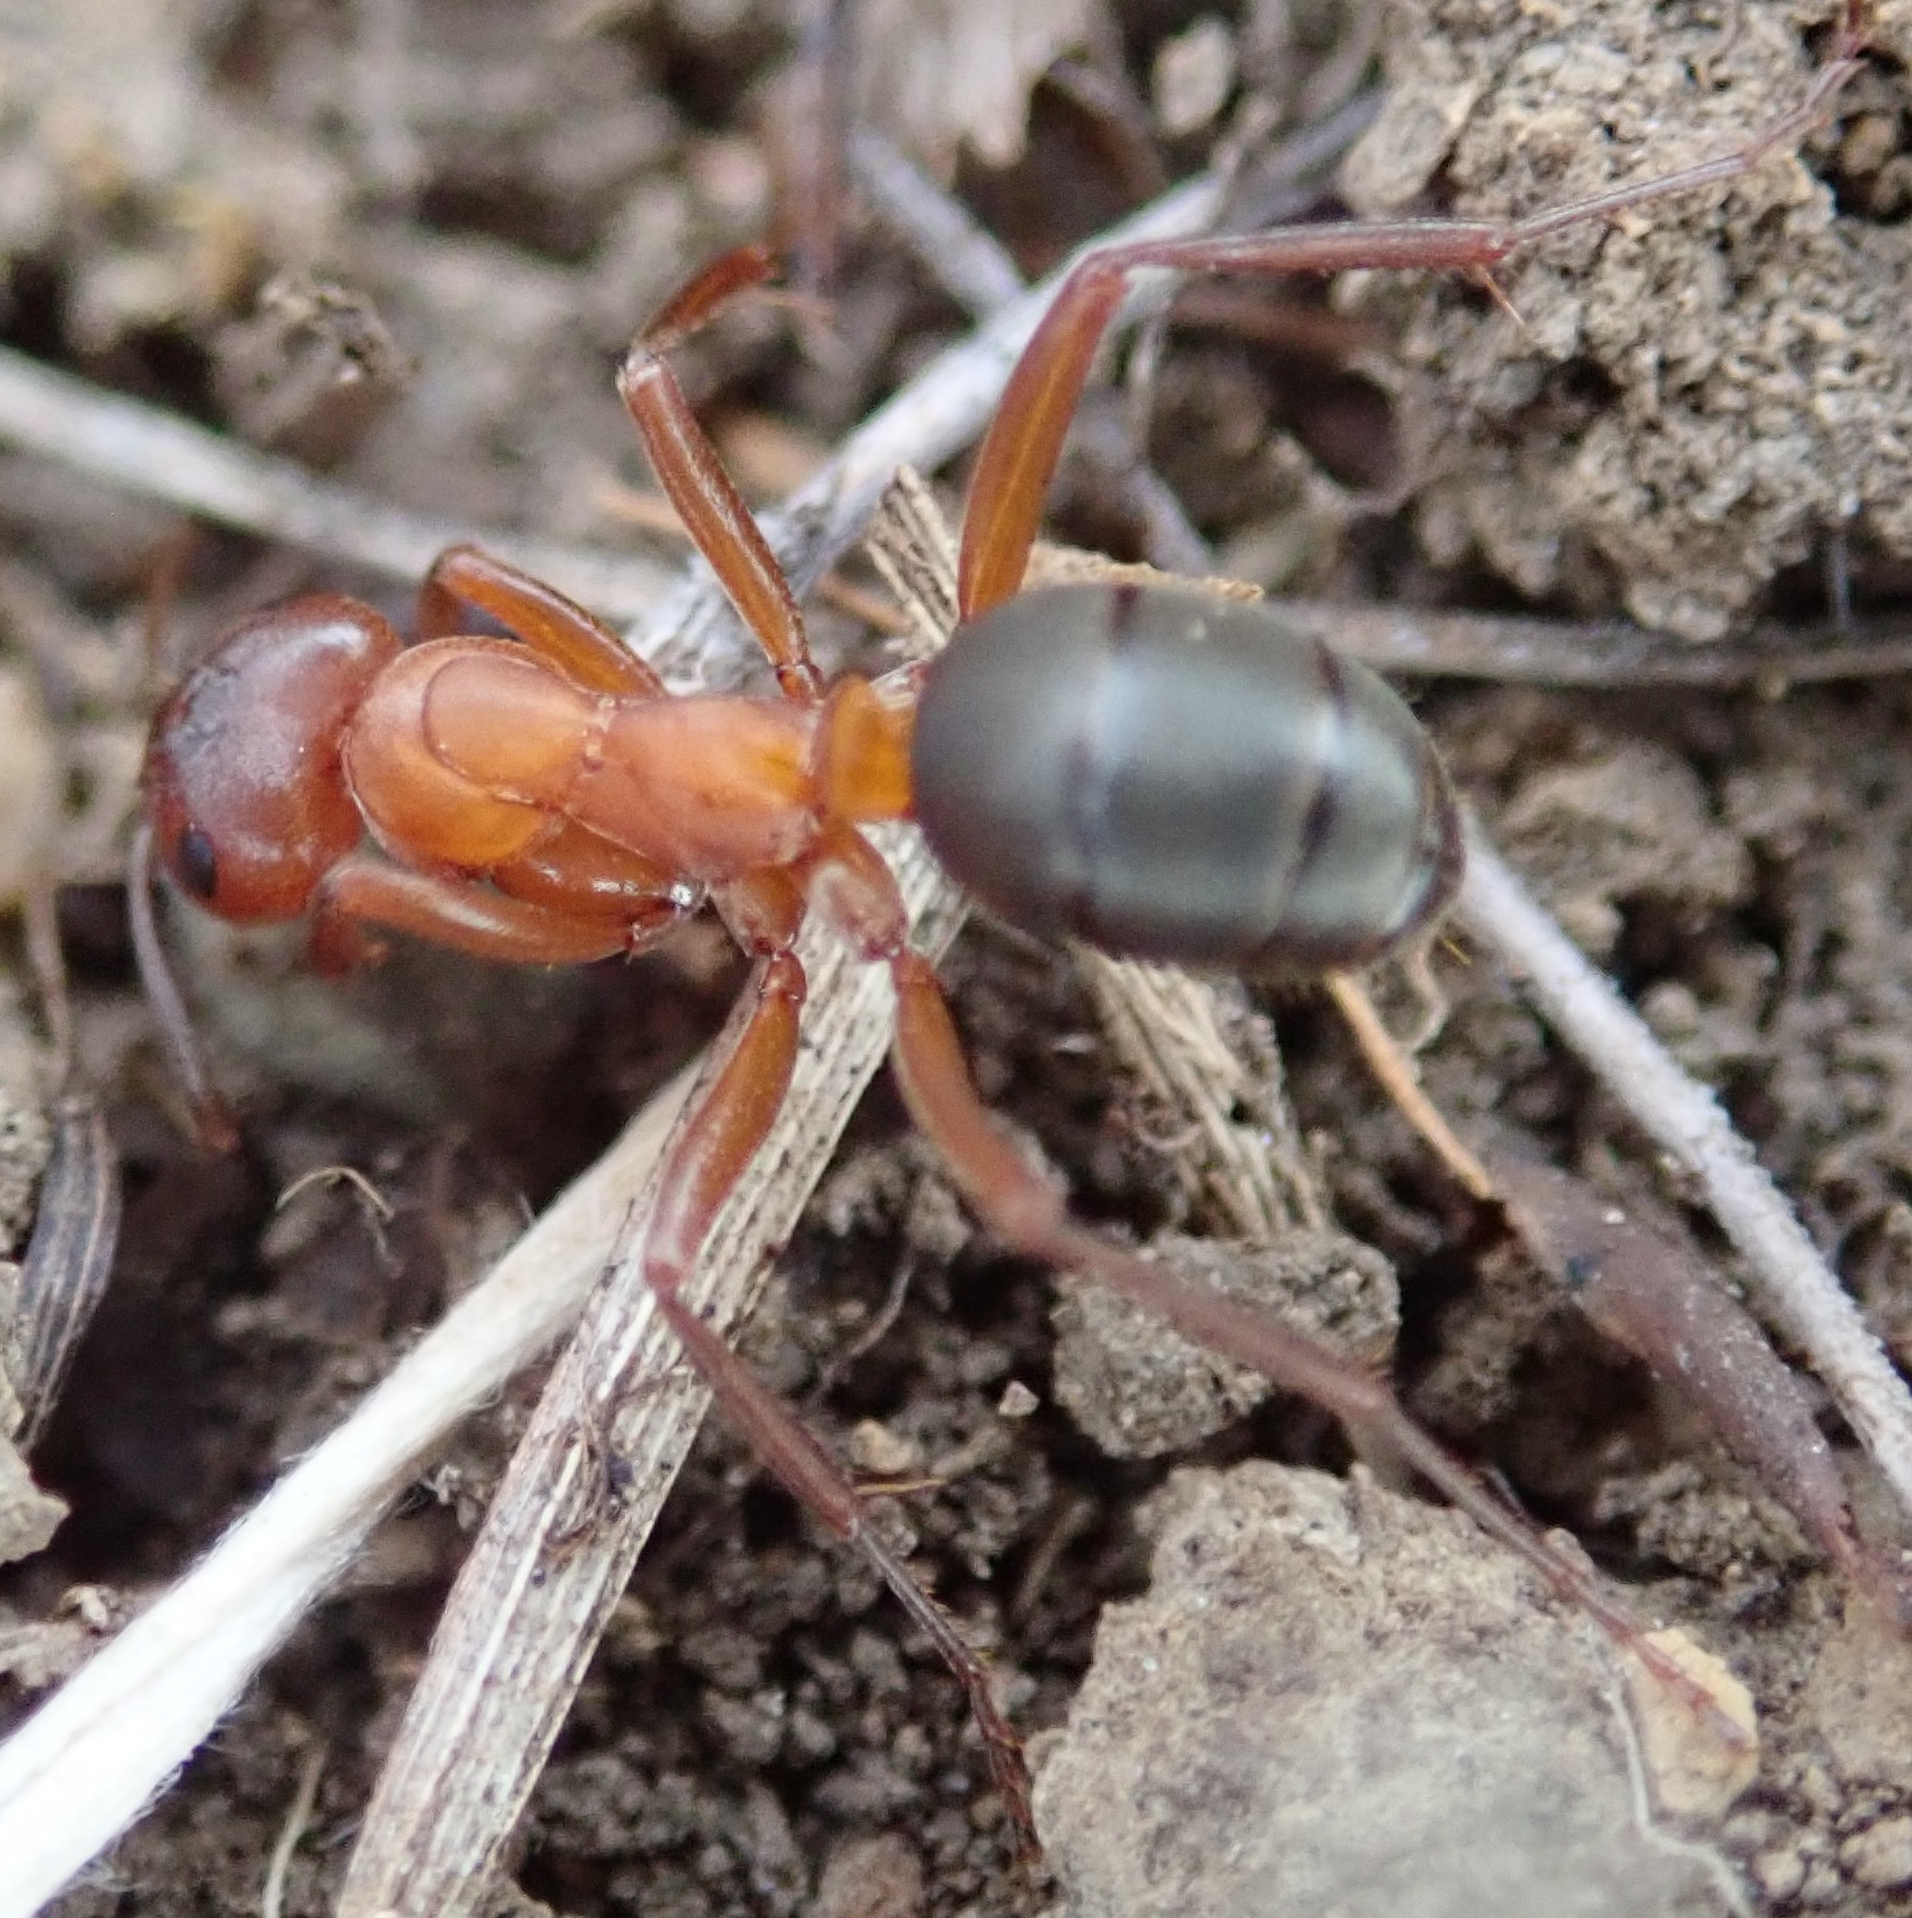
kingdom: Animalia
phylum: Arthropoda
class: Insecta
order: Hymenoptera
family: Formicidae
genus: Formica
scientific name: Formica sanguinea
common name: Blood-red ant
